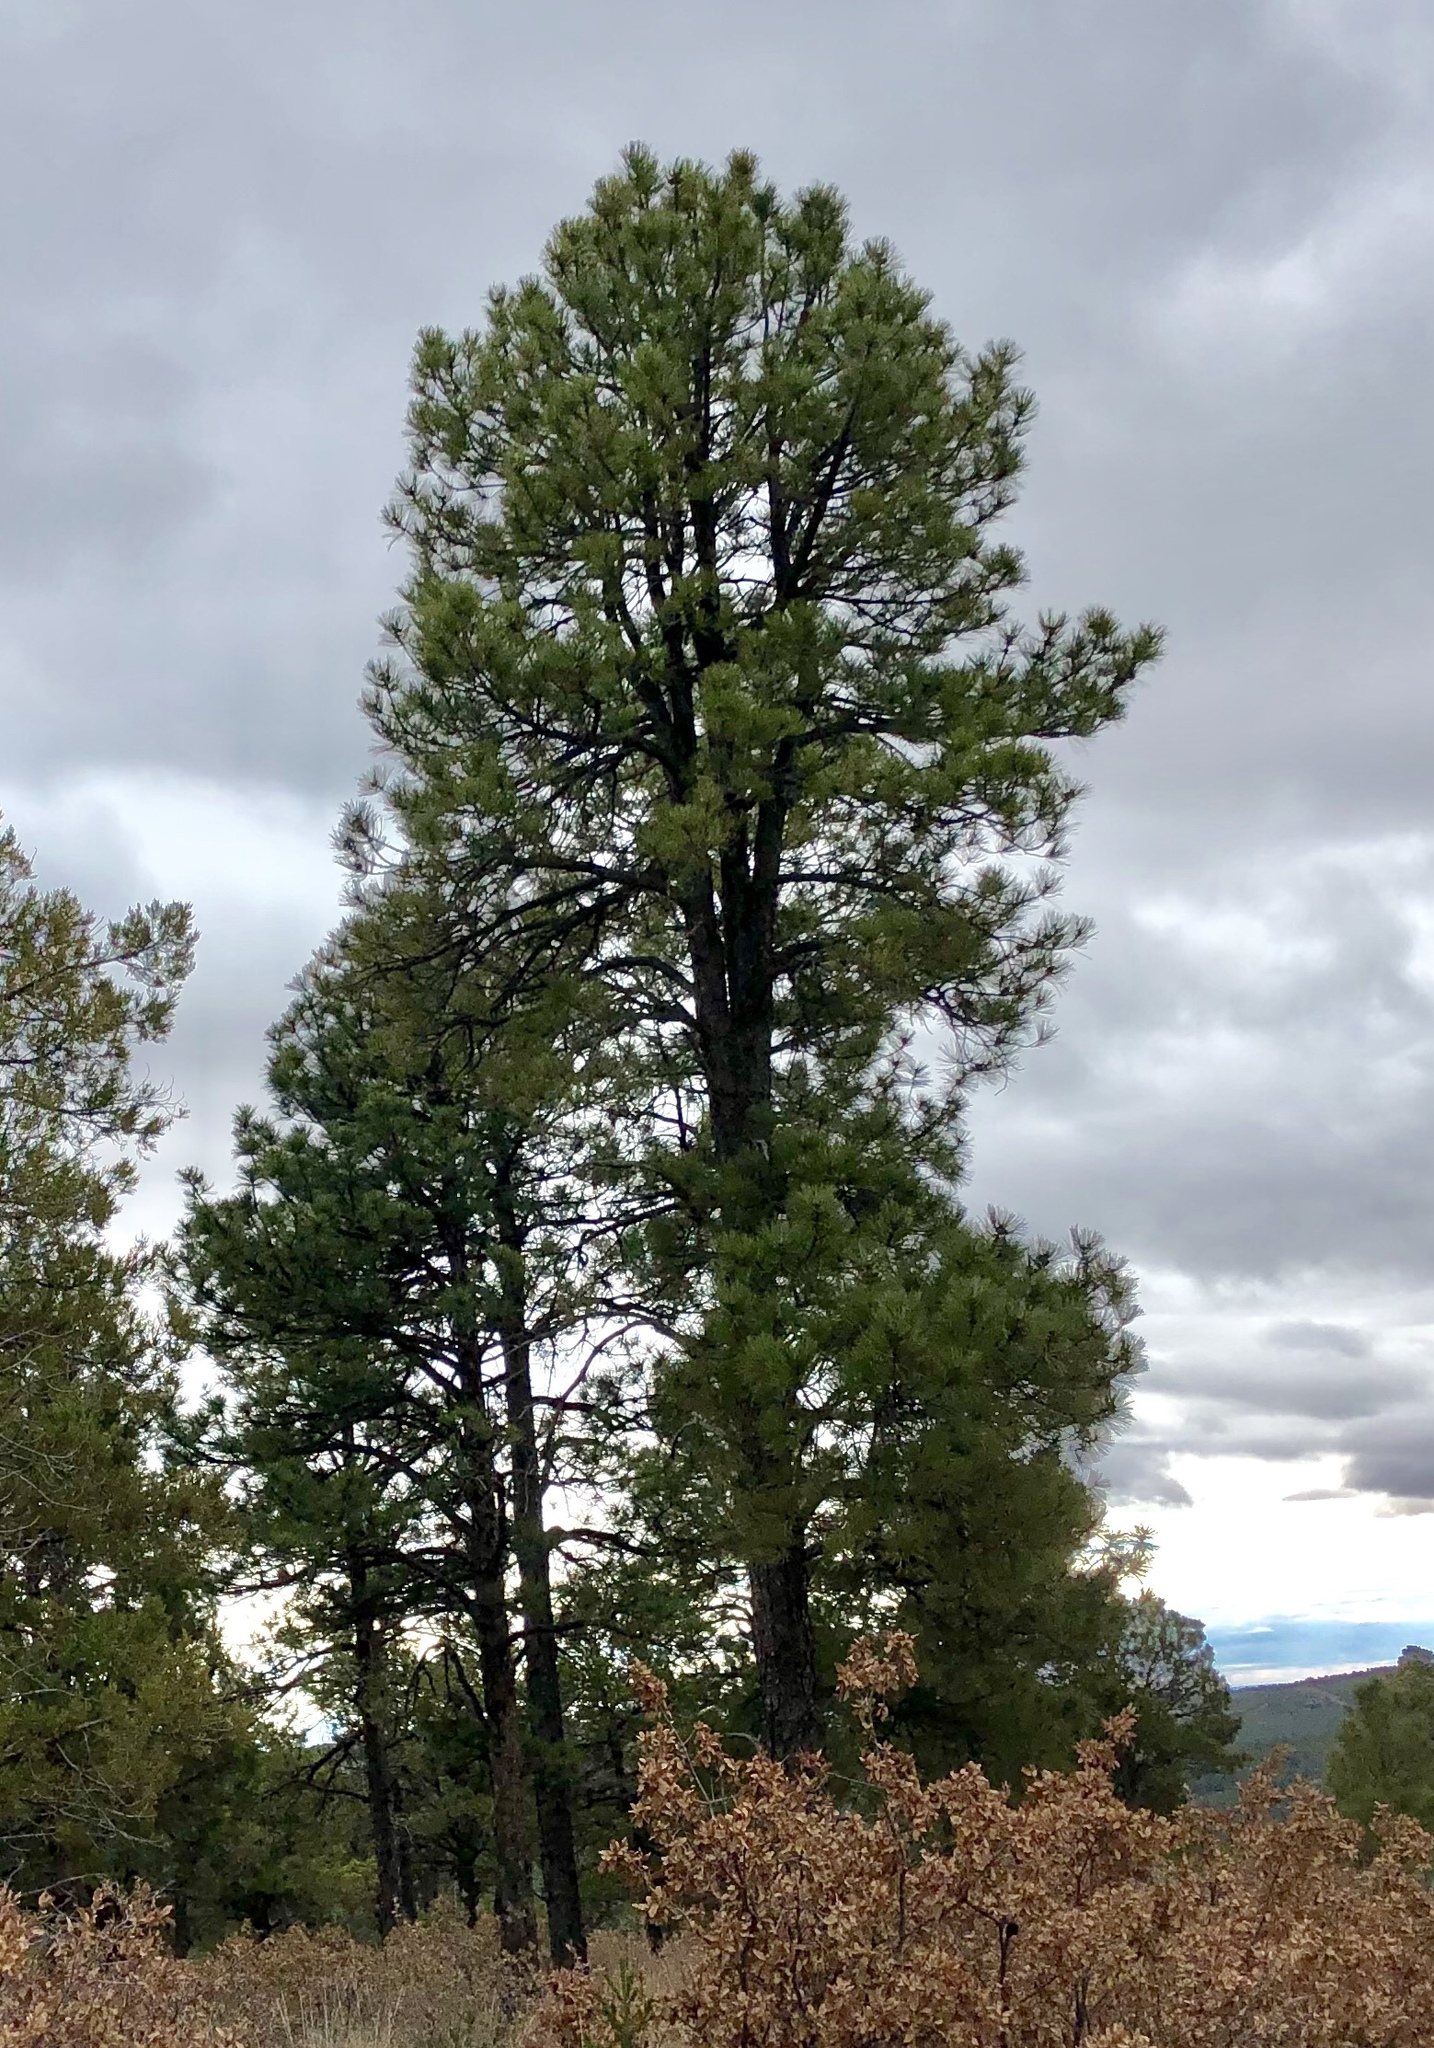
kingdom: Plantae
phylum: Tracheophyta
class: Pinopsida
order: Pinales
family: Pinaceae
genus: Pinus
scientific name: Pinus ponderosa
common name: Western yellow-pine
